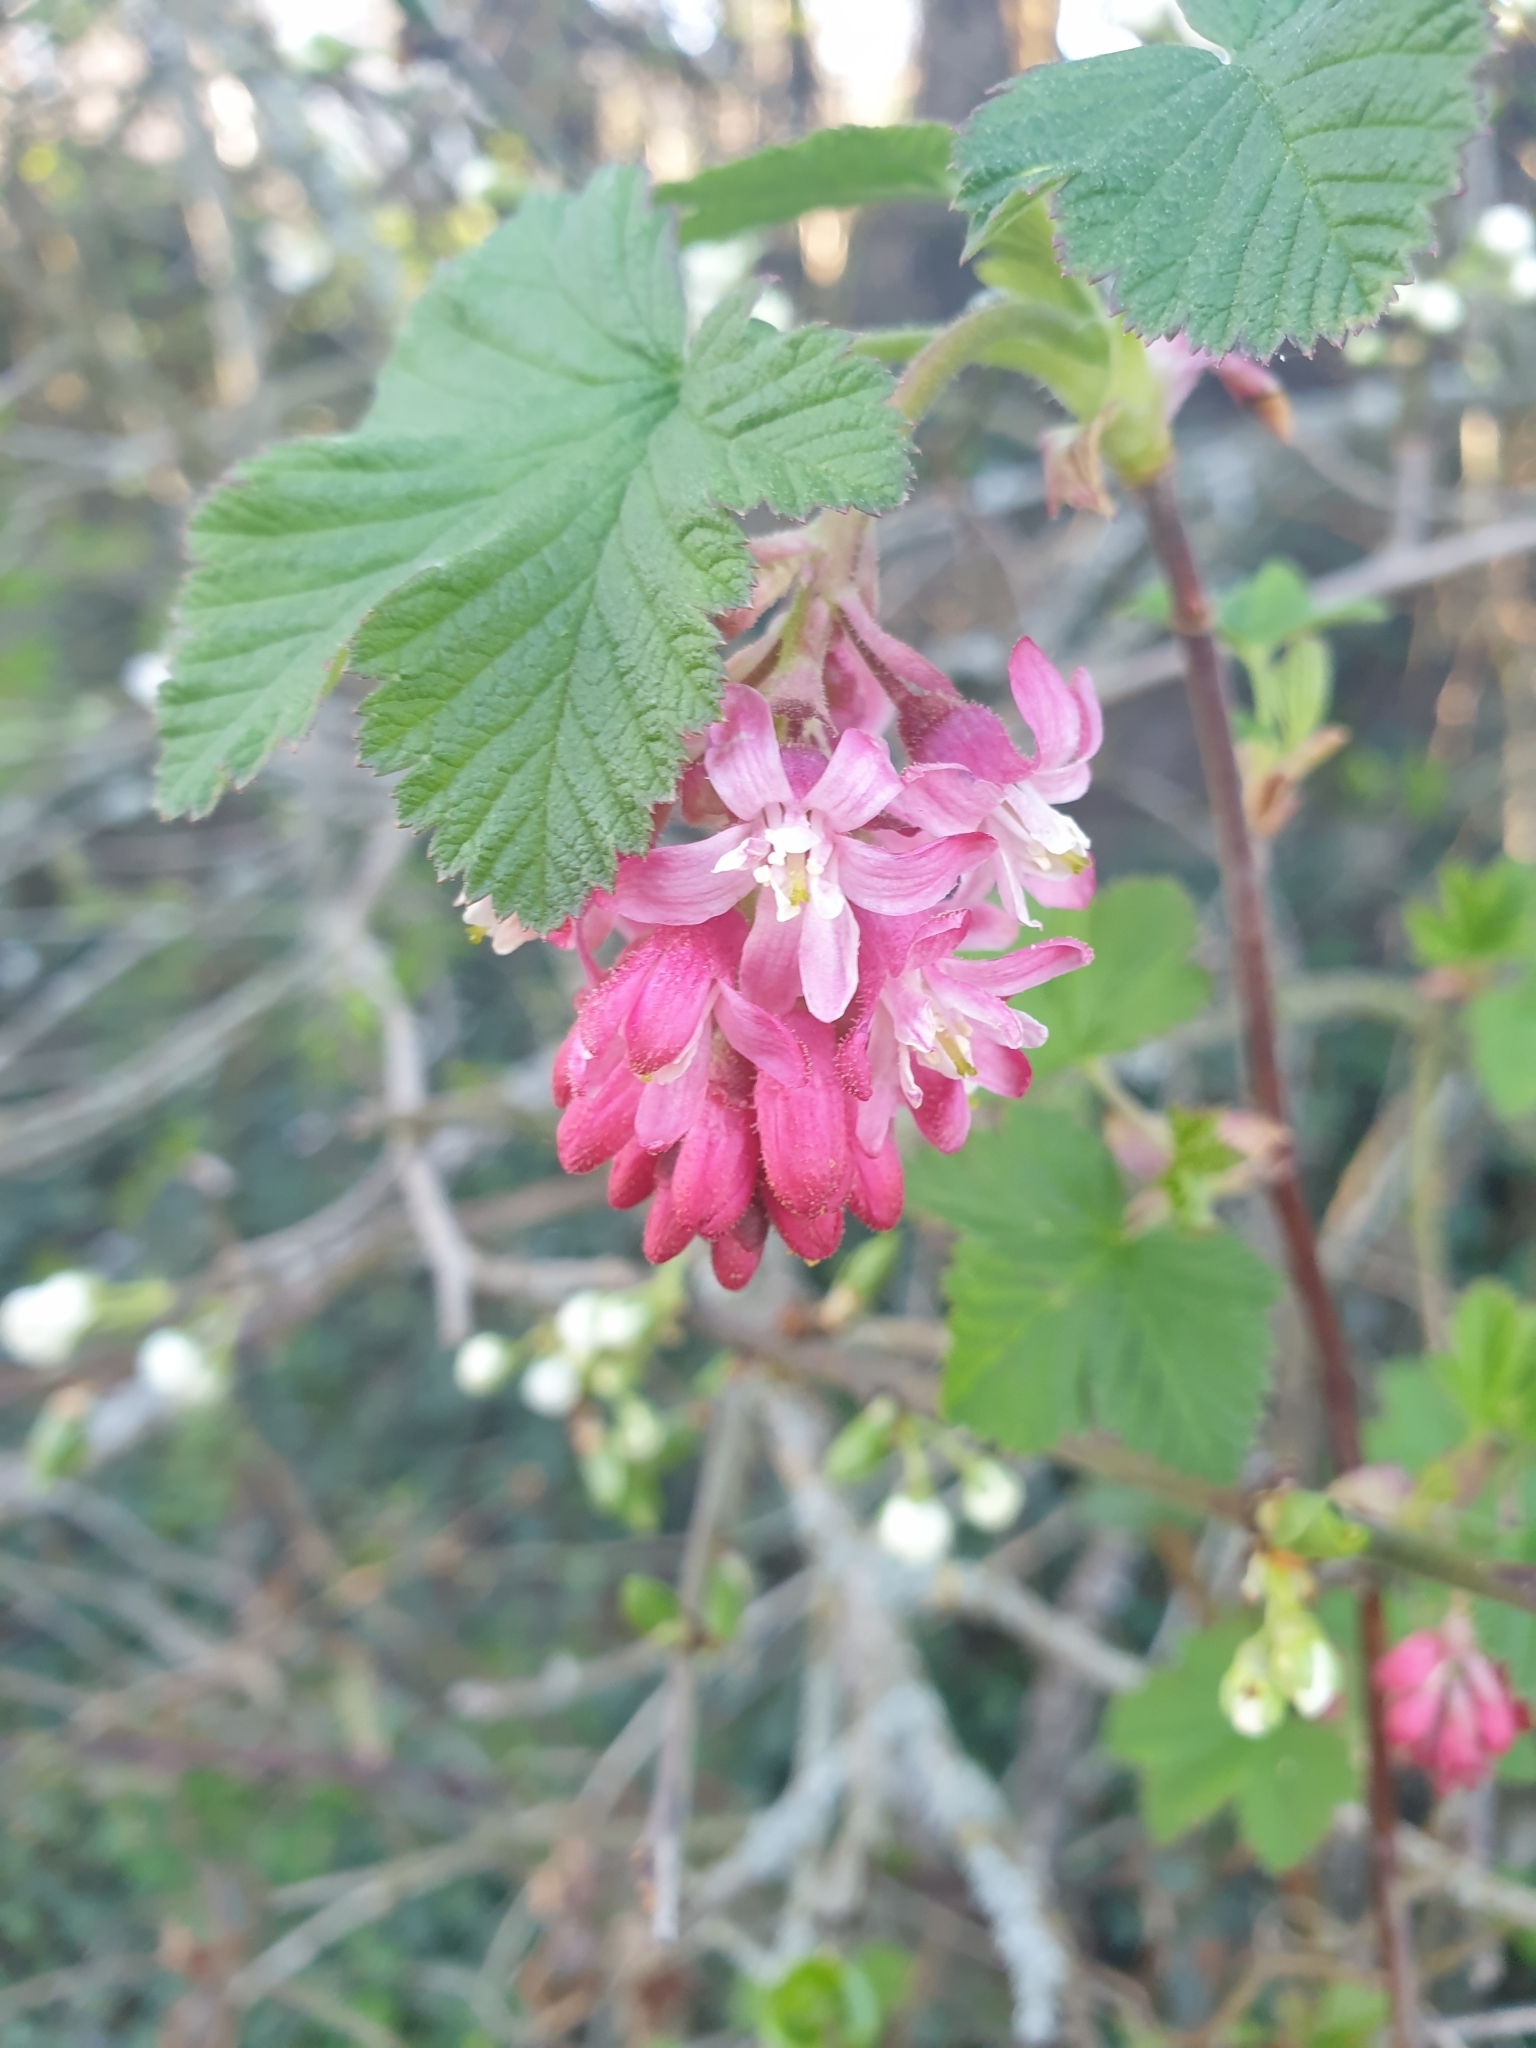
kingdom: Plantae
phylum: Tracheophyta
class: Magnoliopsida
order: Saxifragales
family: Grossulariaceae
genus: Ribes
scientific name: Ribes sanguineum
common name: Flowering currant
